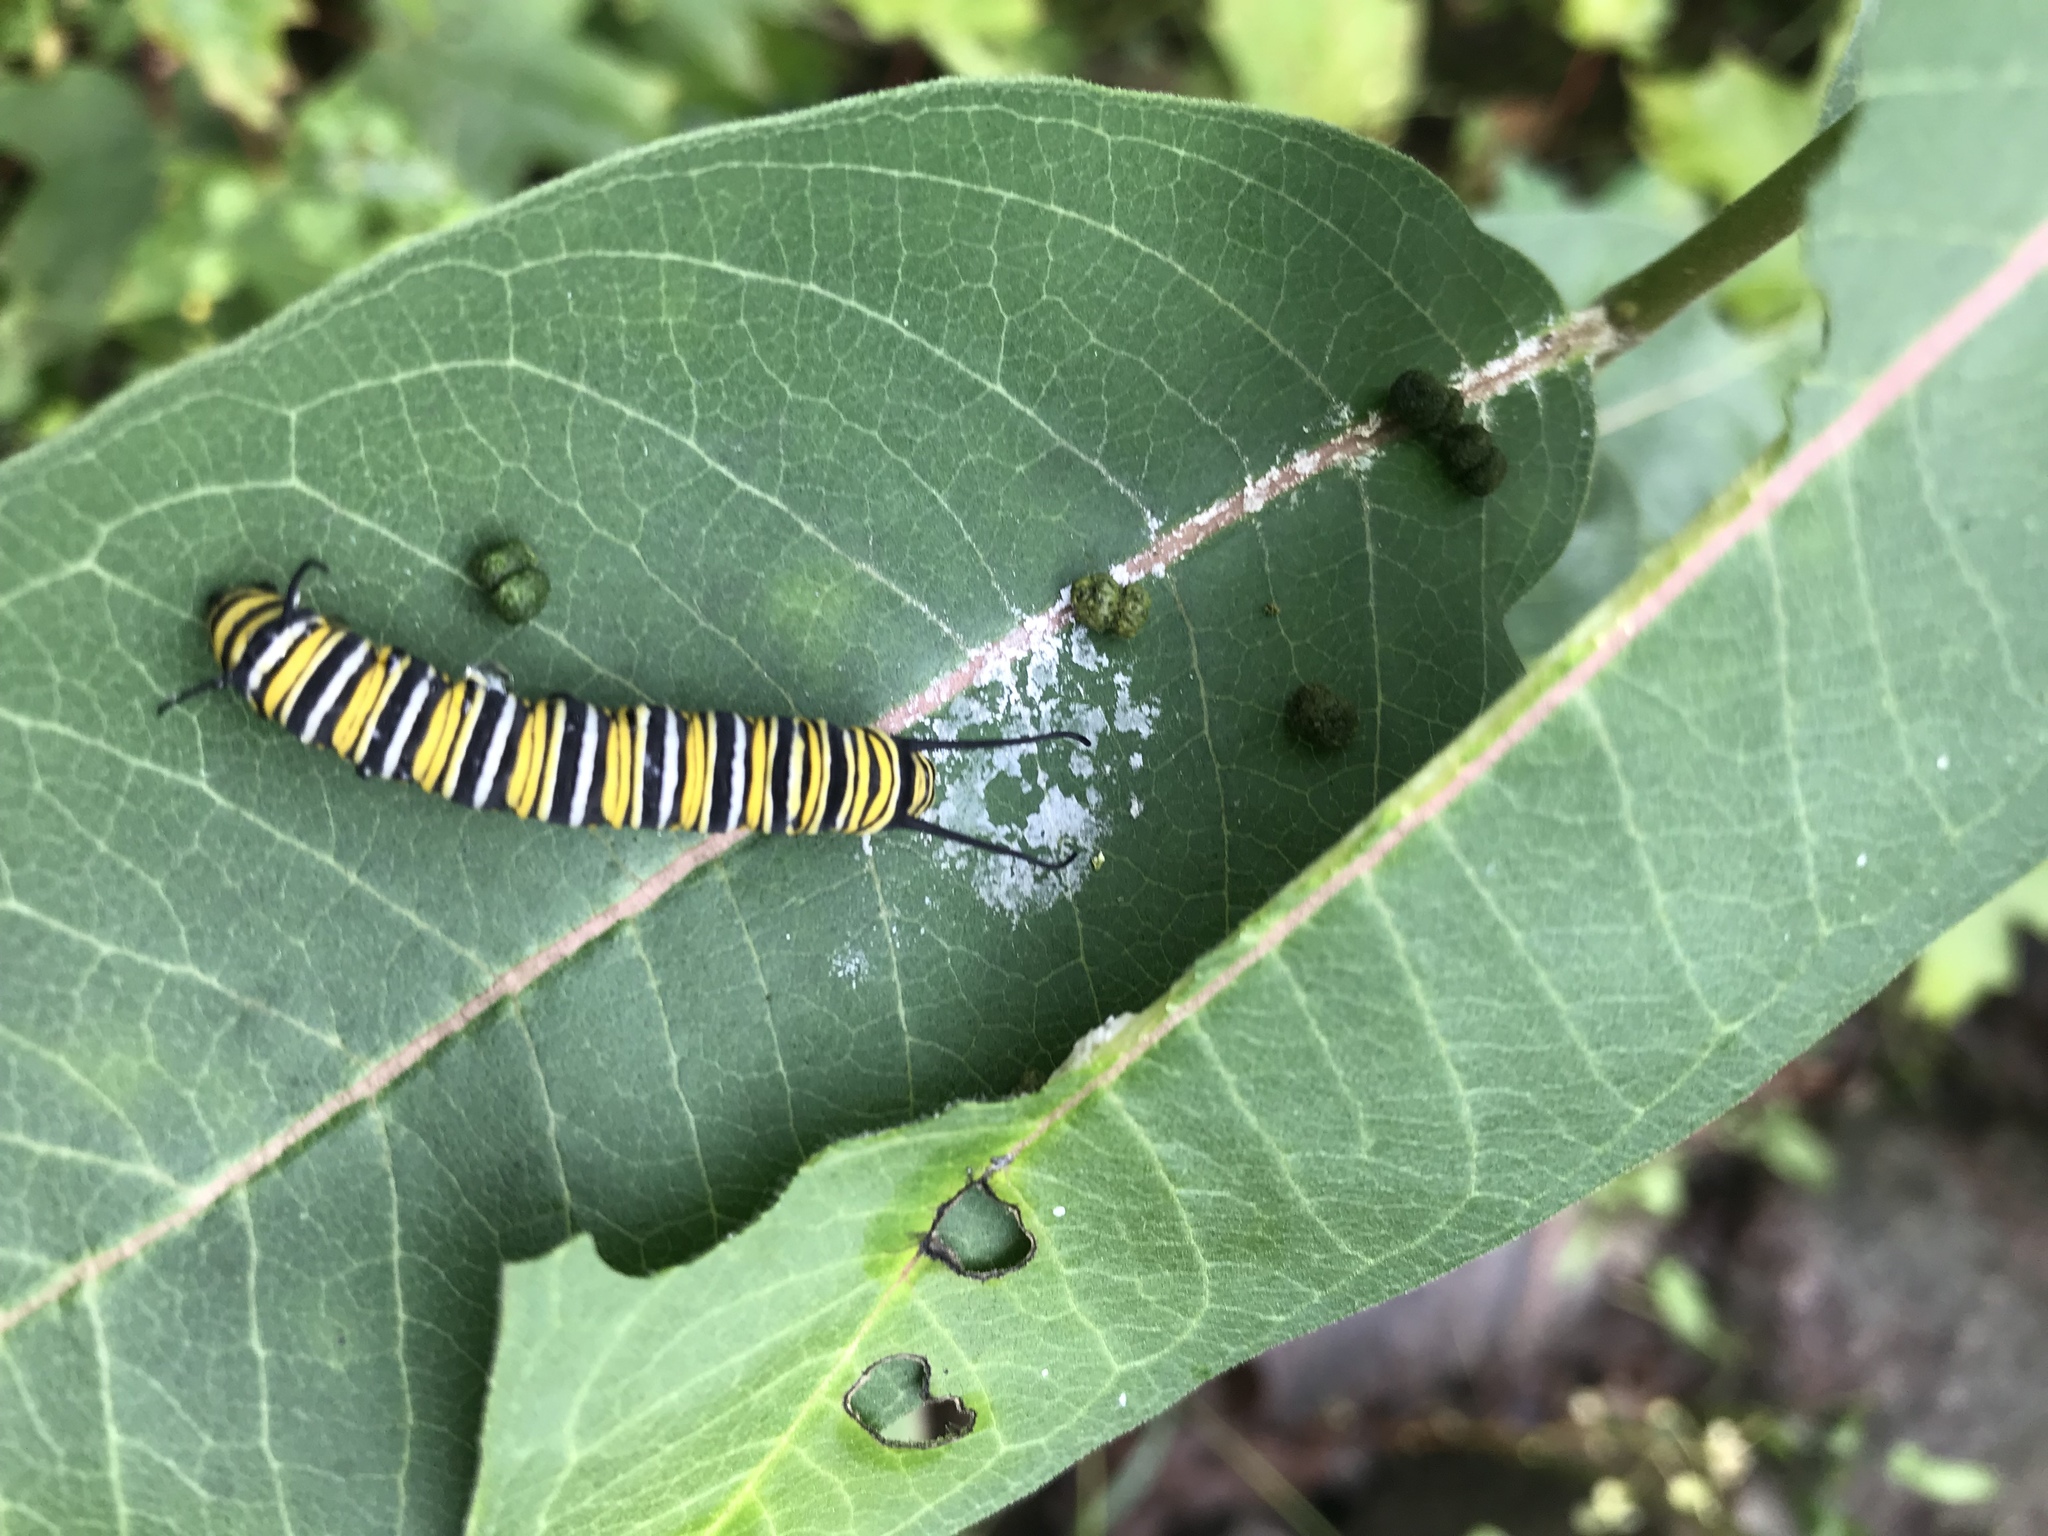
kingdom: Animalia
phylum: Arthropoda
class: Insecta
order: Lepidoptera
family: Nymphalidae
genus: Danaus
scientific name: Danaus plexippus
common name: Monarch
